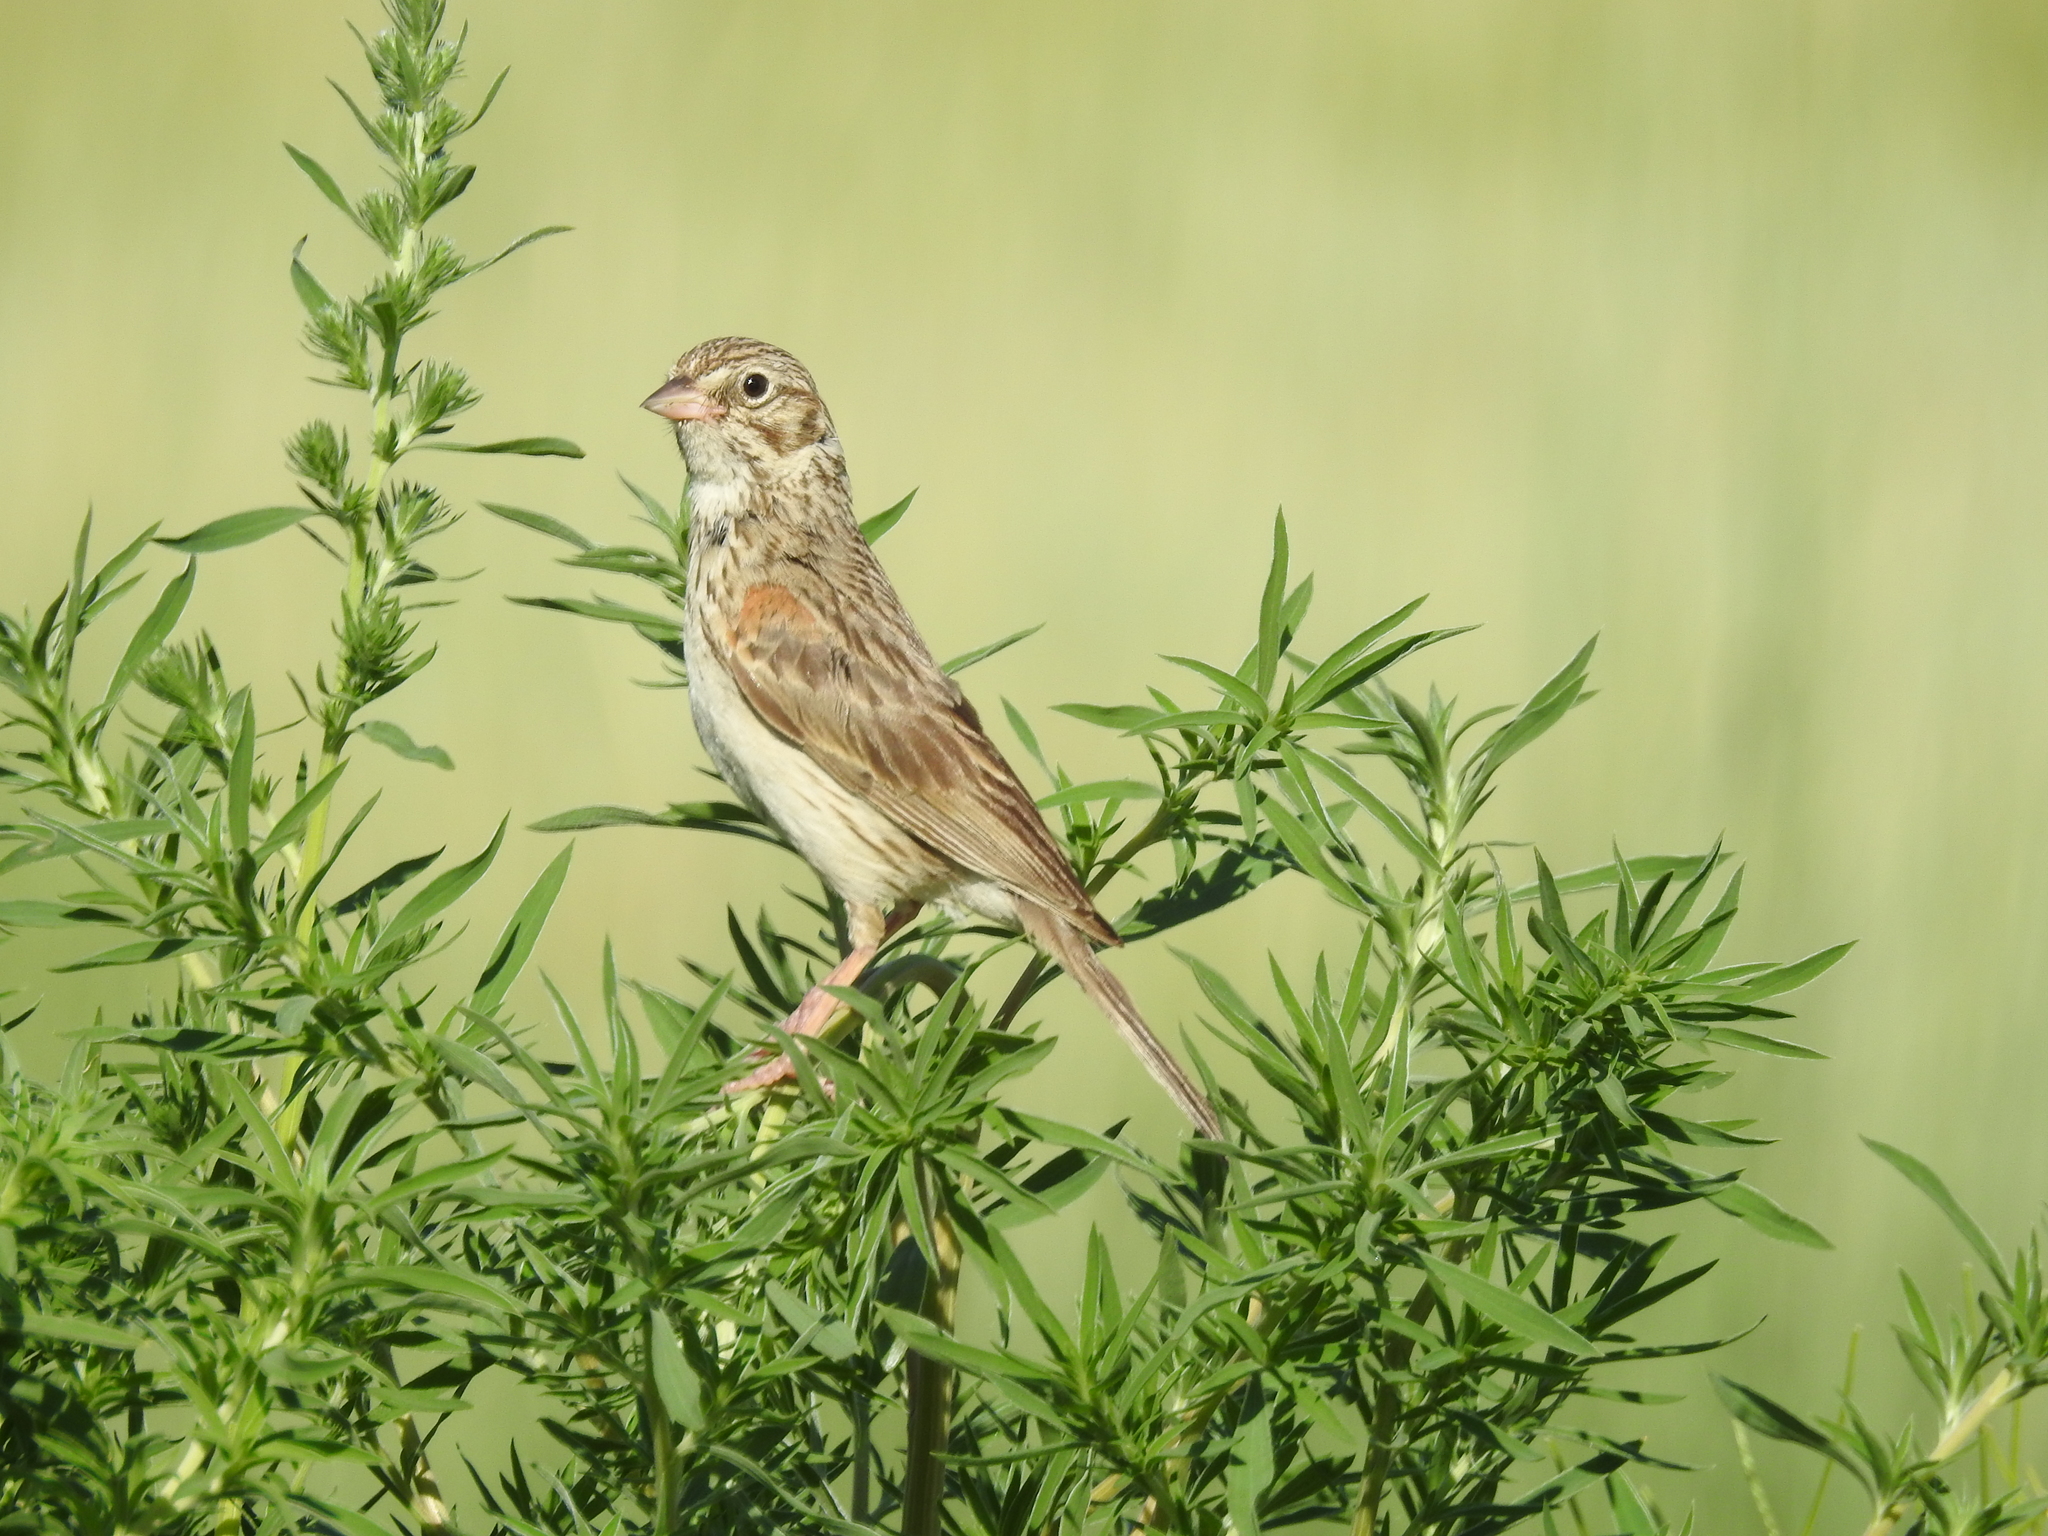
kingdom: Animalia
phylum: Chordata
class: Aves
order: Passeriformes
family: Passerellidae
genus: Pooecetes
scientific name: Pooecetes gramineus
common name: Vesper sparrow
